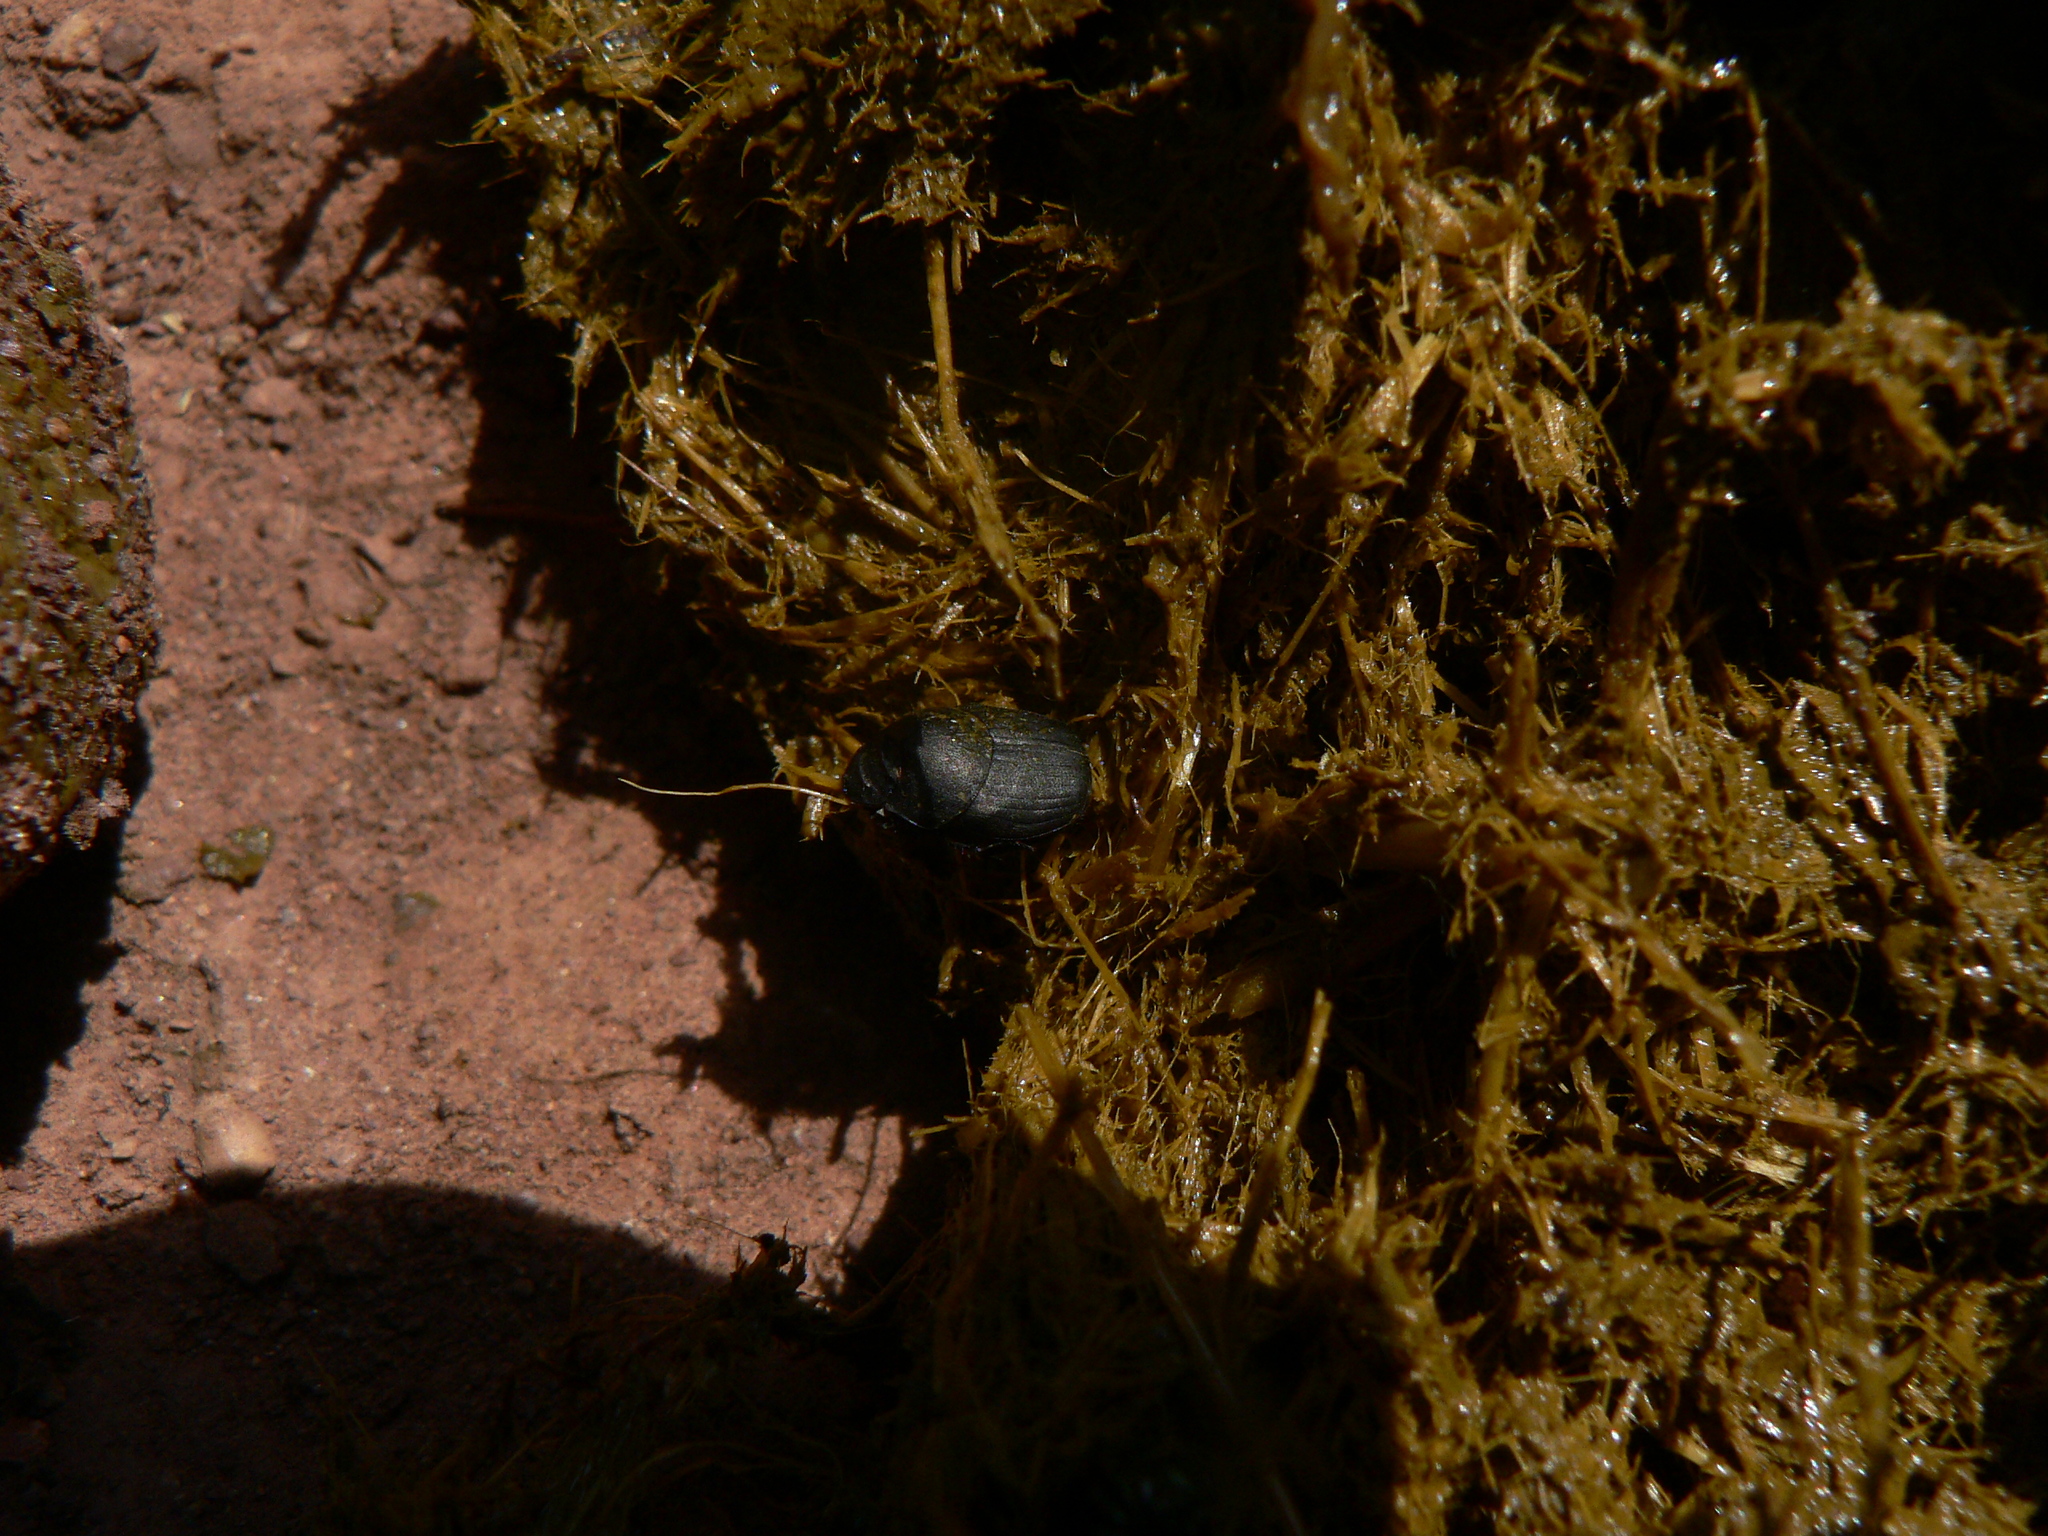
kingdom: Animalia
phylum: Arthropoda
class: Insecta
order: Coleoptera
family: Scarabaeidae
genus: Onthophagus
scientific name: Onthophagus verticicornis
